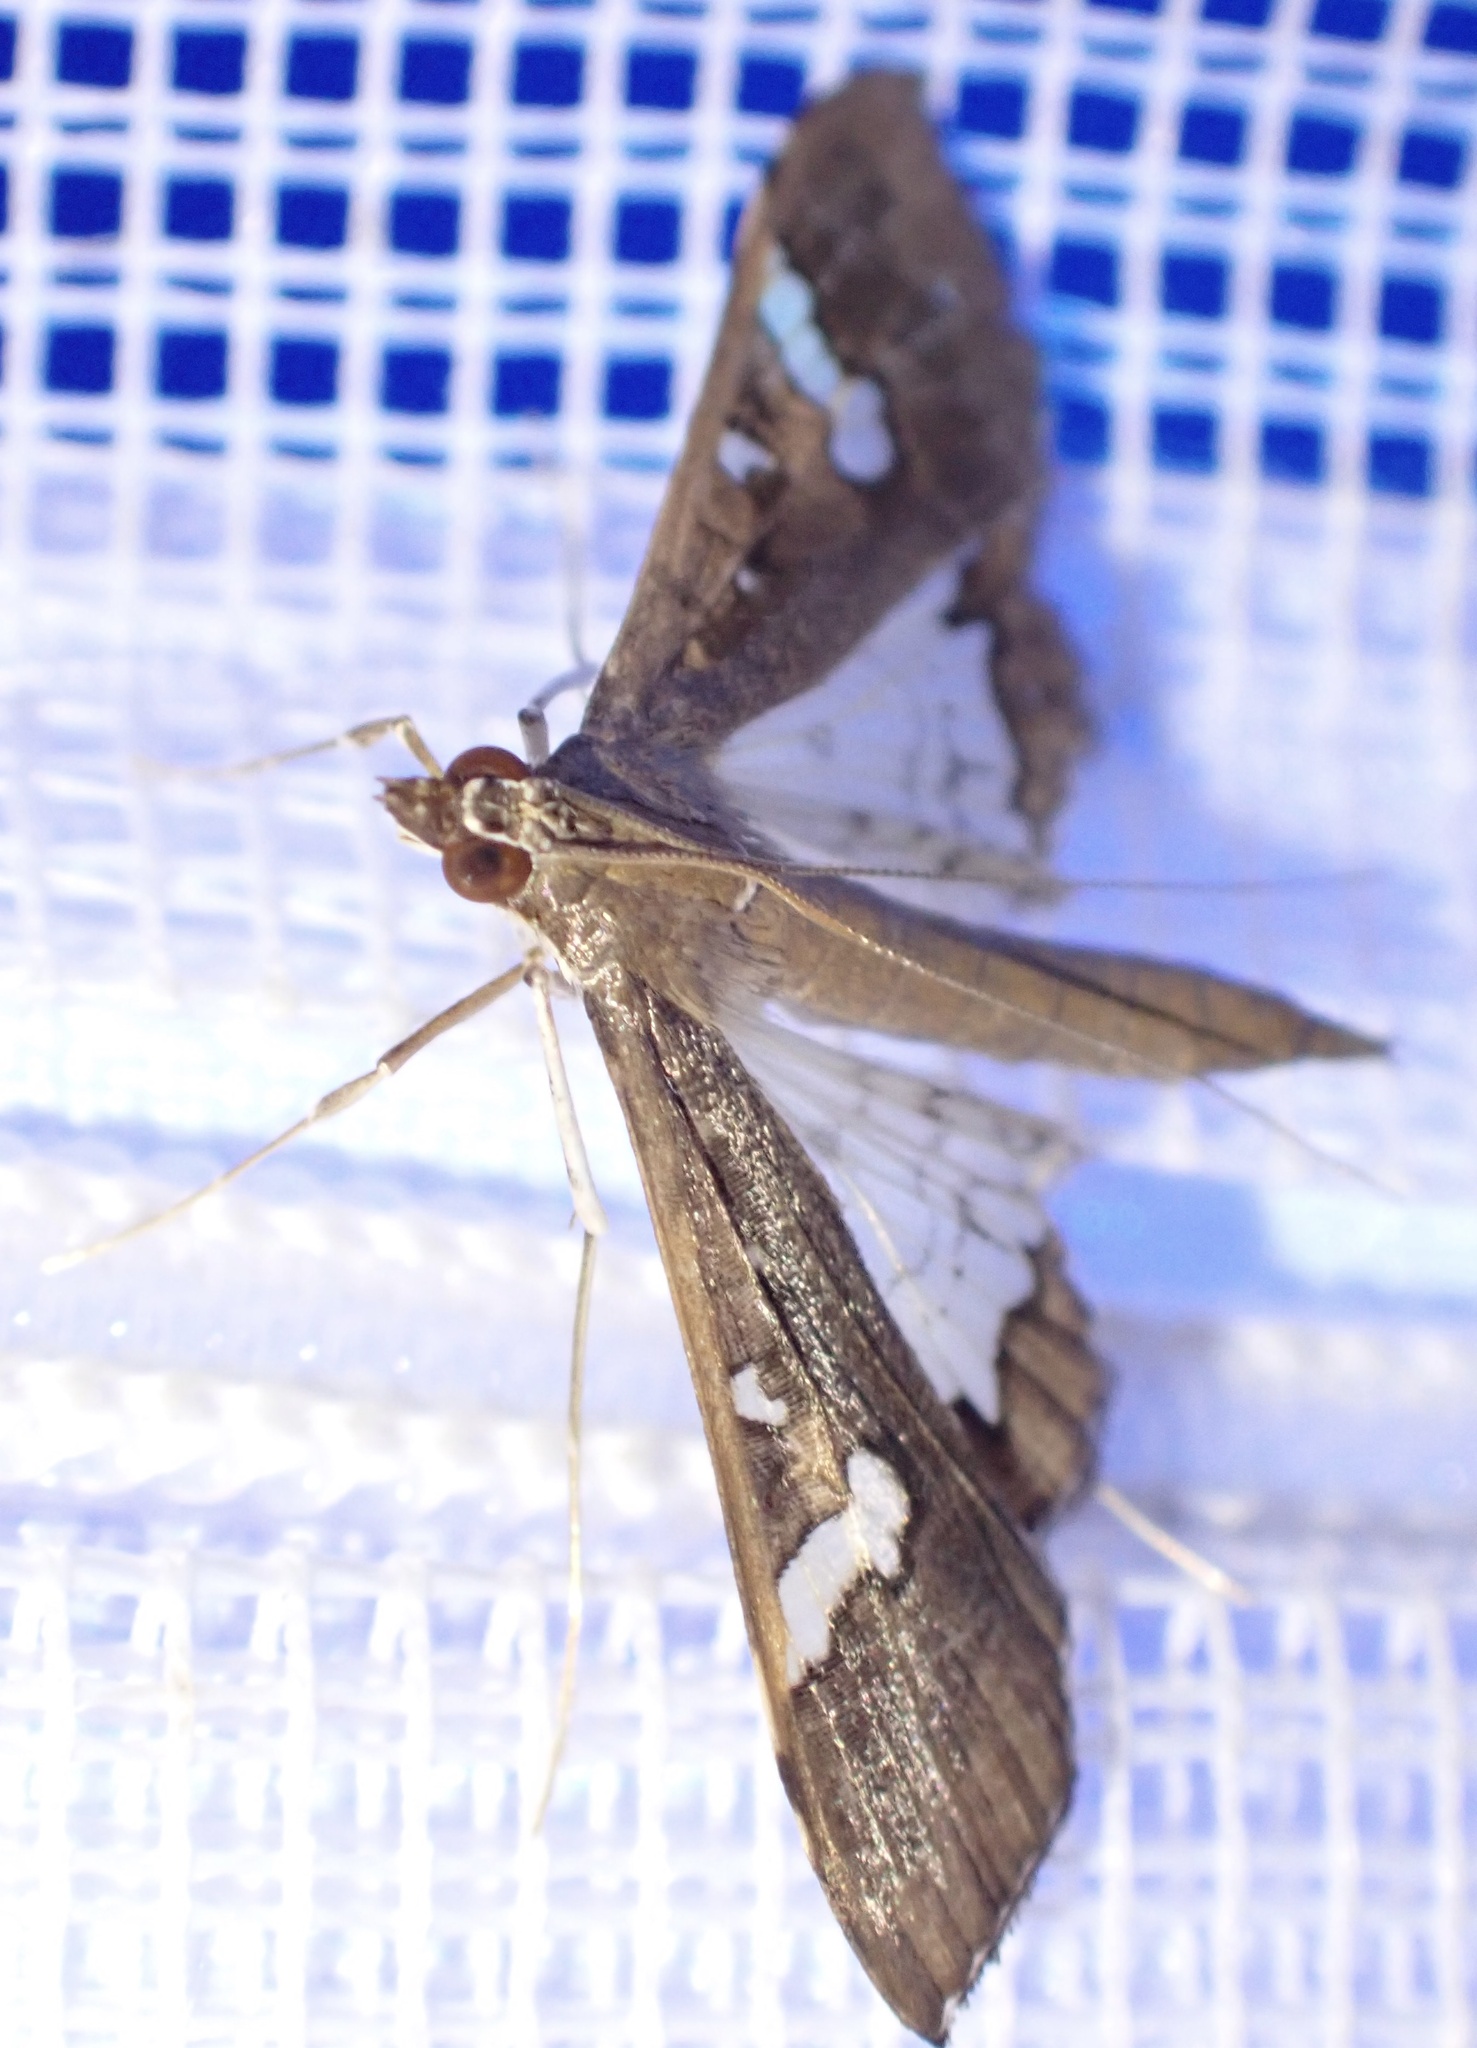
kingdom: Animalia
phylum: Arthropoda
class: Insecta
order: Lepidoptera
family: Crambidae
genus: Maruca
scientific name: Maruca vitrata
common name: Maruca pod borer
